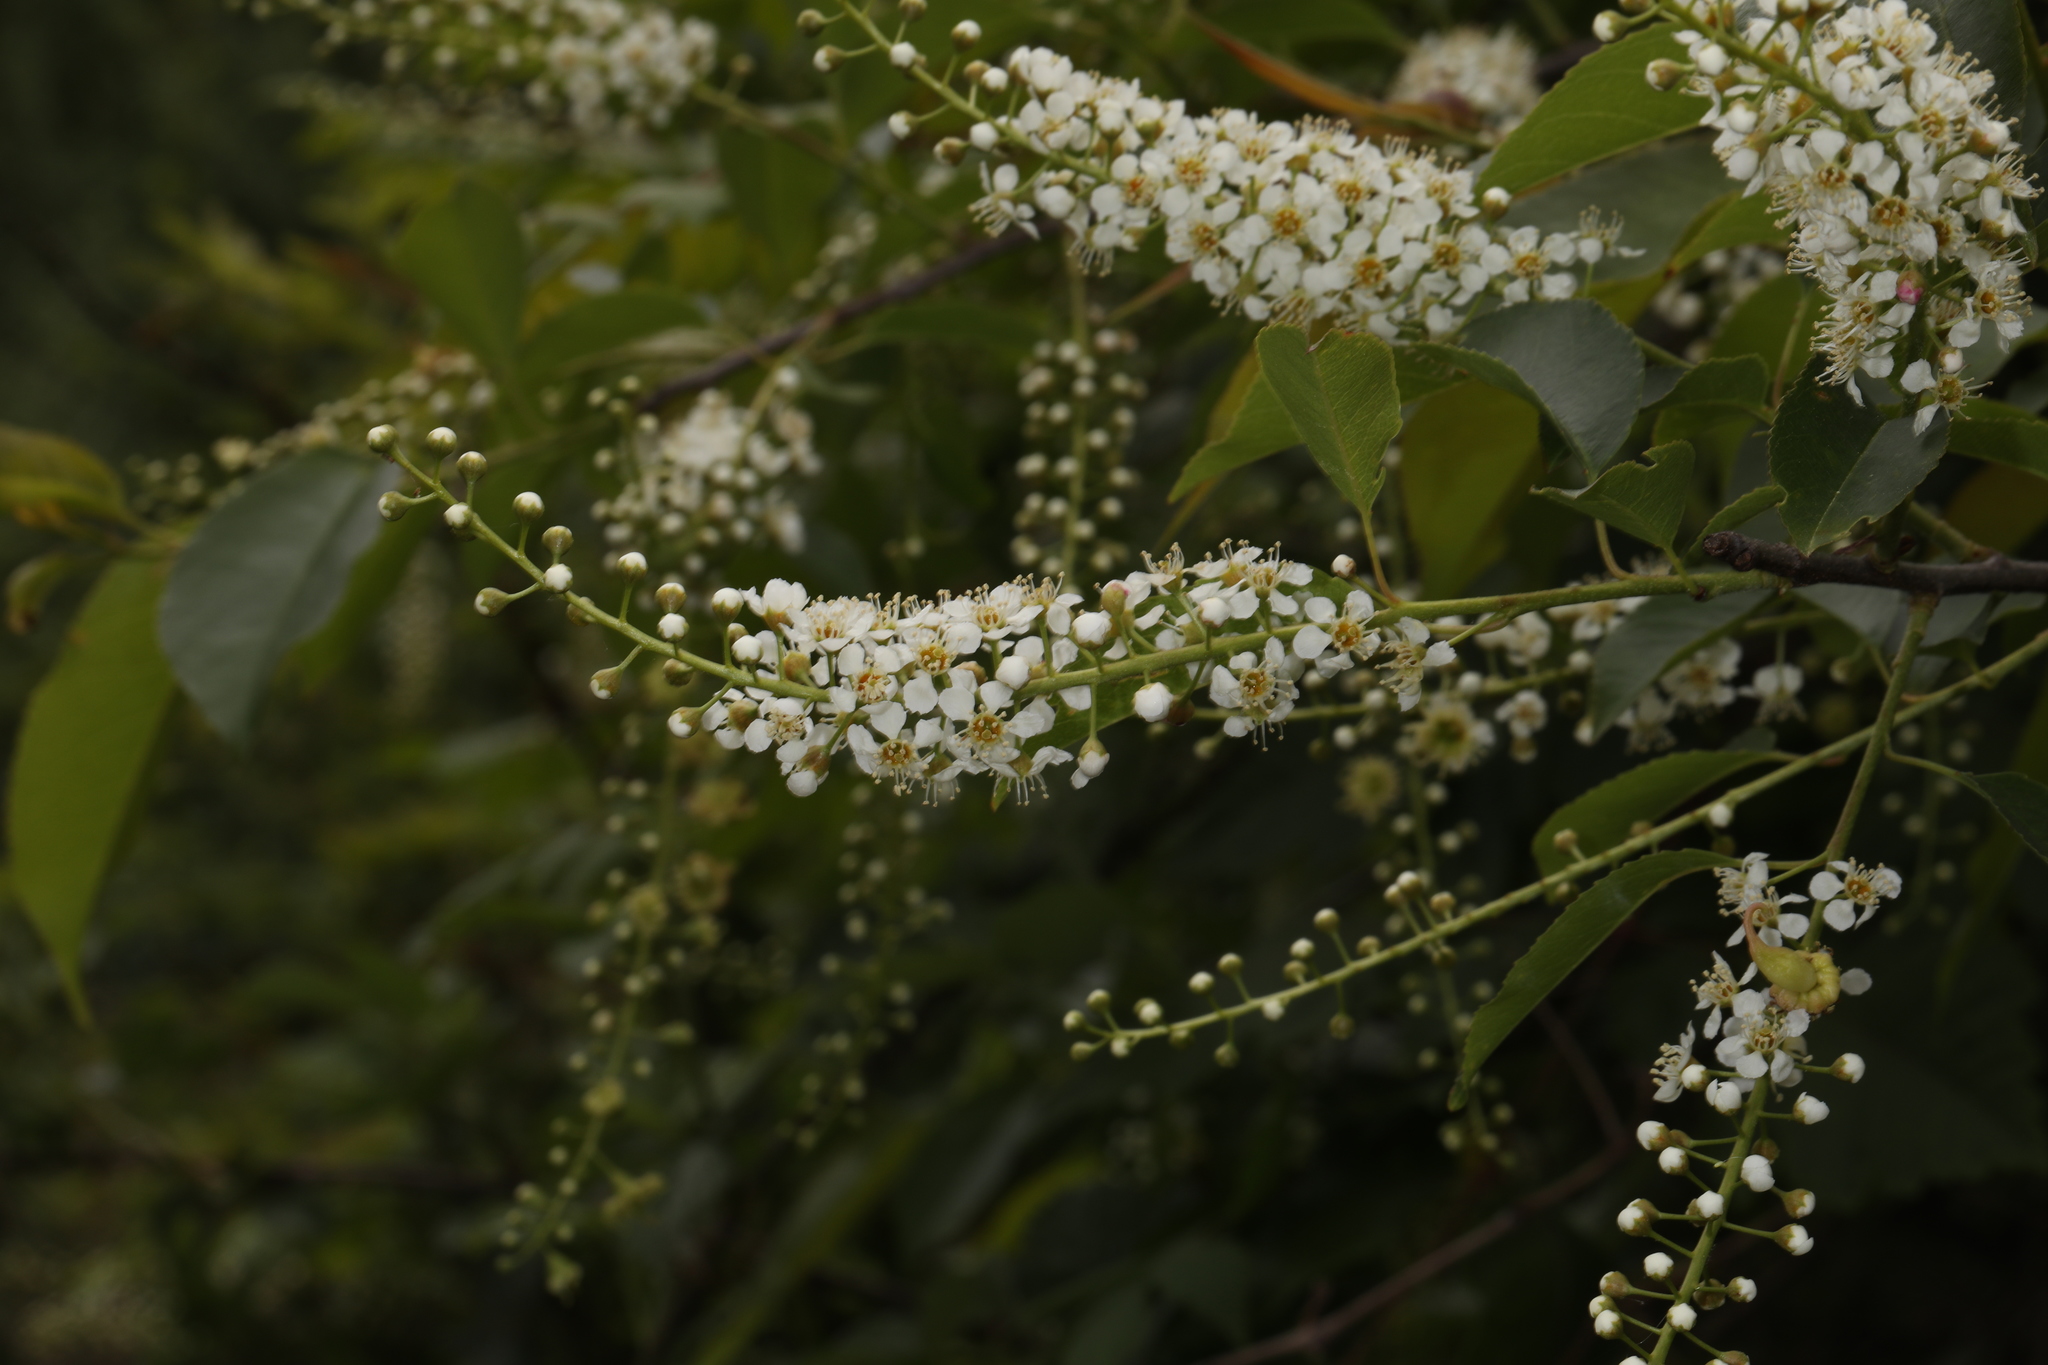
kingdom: Plantae
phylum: Tracheophyta
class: Magnoliopsida
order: Rosales
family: Rosaceae
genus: Prunus
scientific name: Prunus serotina
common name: Black cherry
